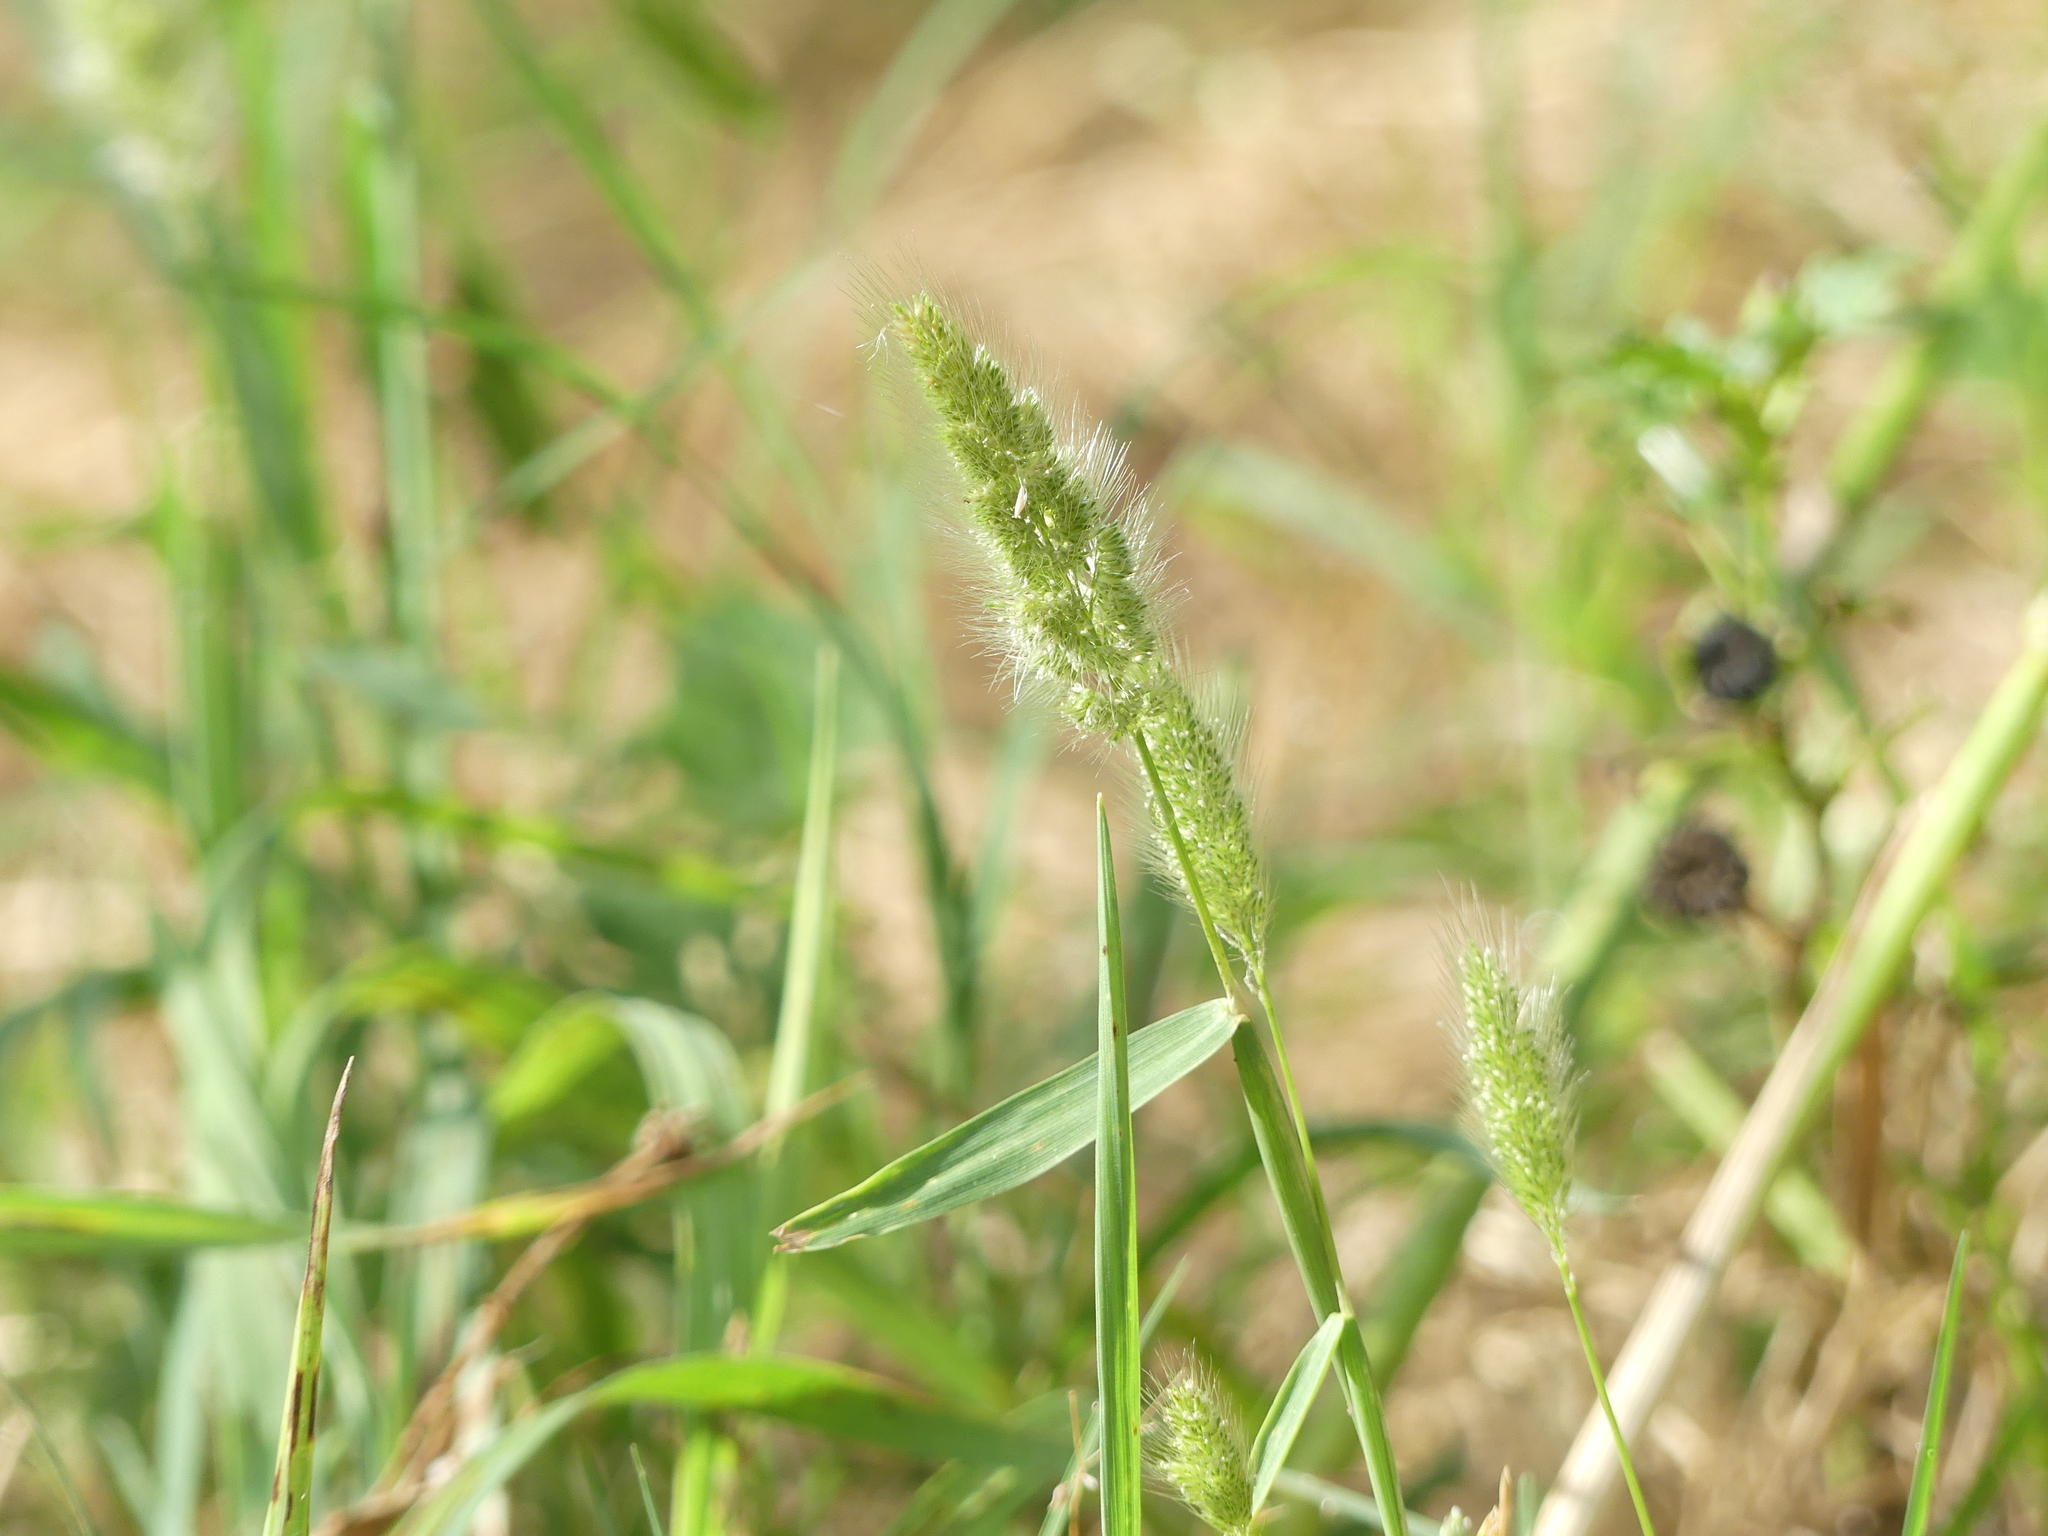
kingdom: Plantae
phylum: Tracheophyta
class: Liliopsida
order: Poales
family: Poaceae
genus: Polypogon
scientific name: Polypogon monspeliensis
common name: Annual rabbitsfoot grass
